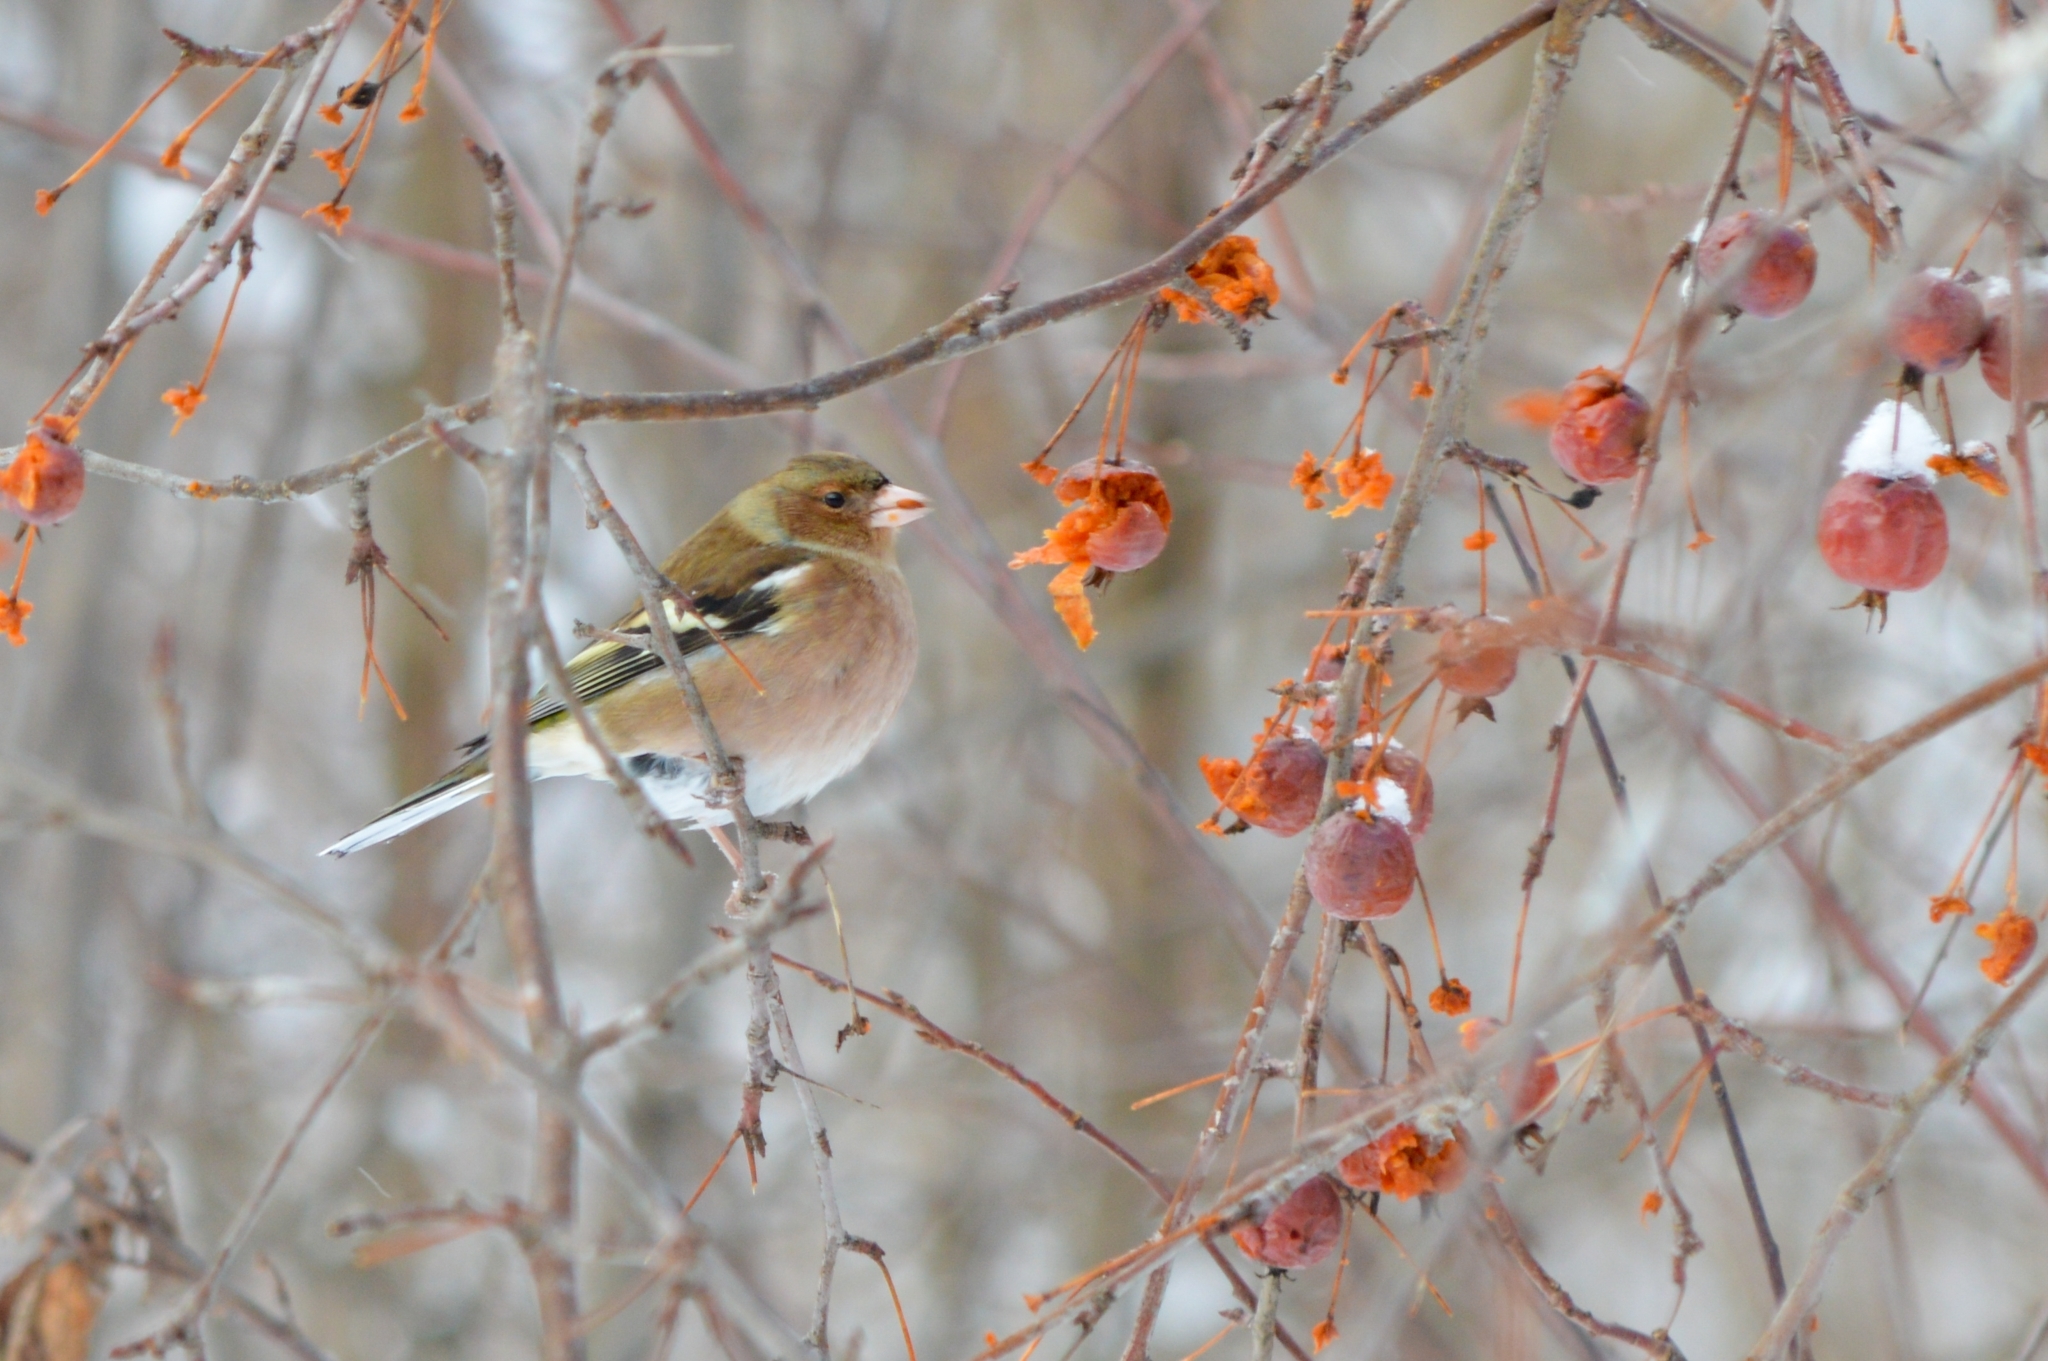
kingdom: Animalia
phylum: Chordata
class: Aves
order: Passeriformes
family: Fringillidae
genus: Fringilla
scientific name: Fringilla coelebs
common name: Common chaffinch
